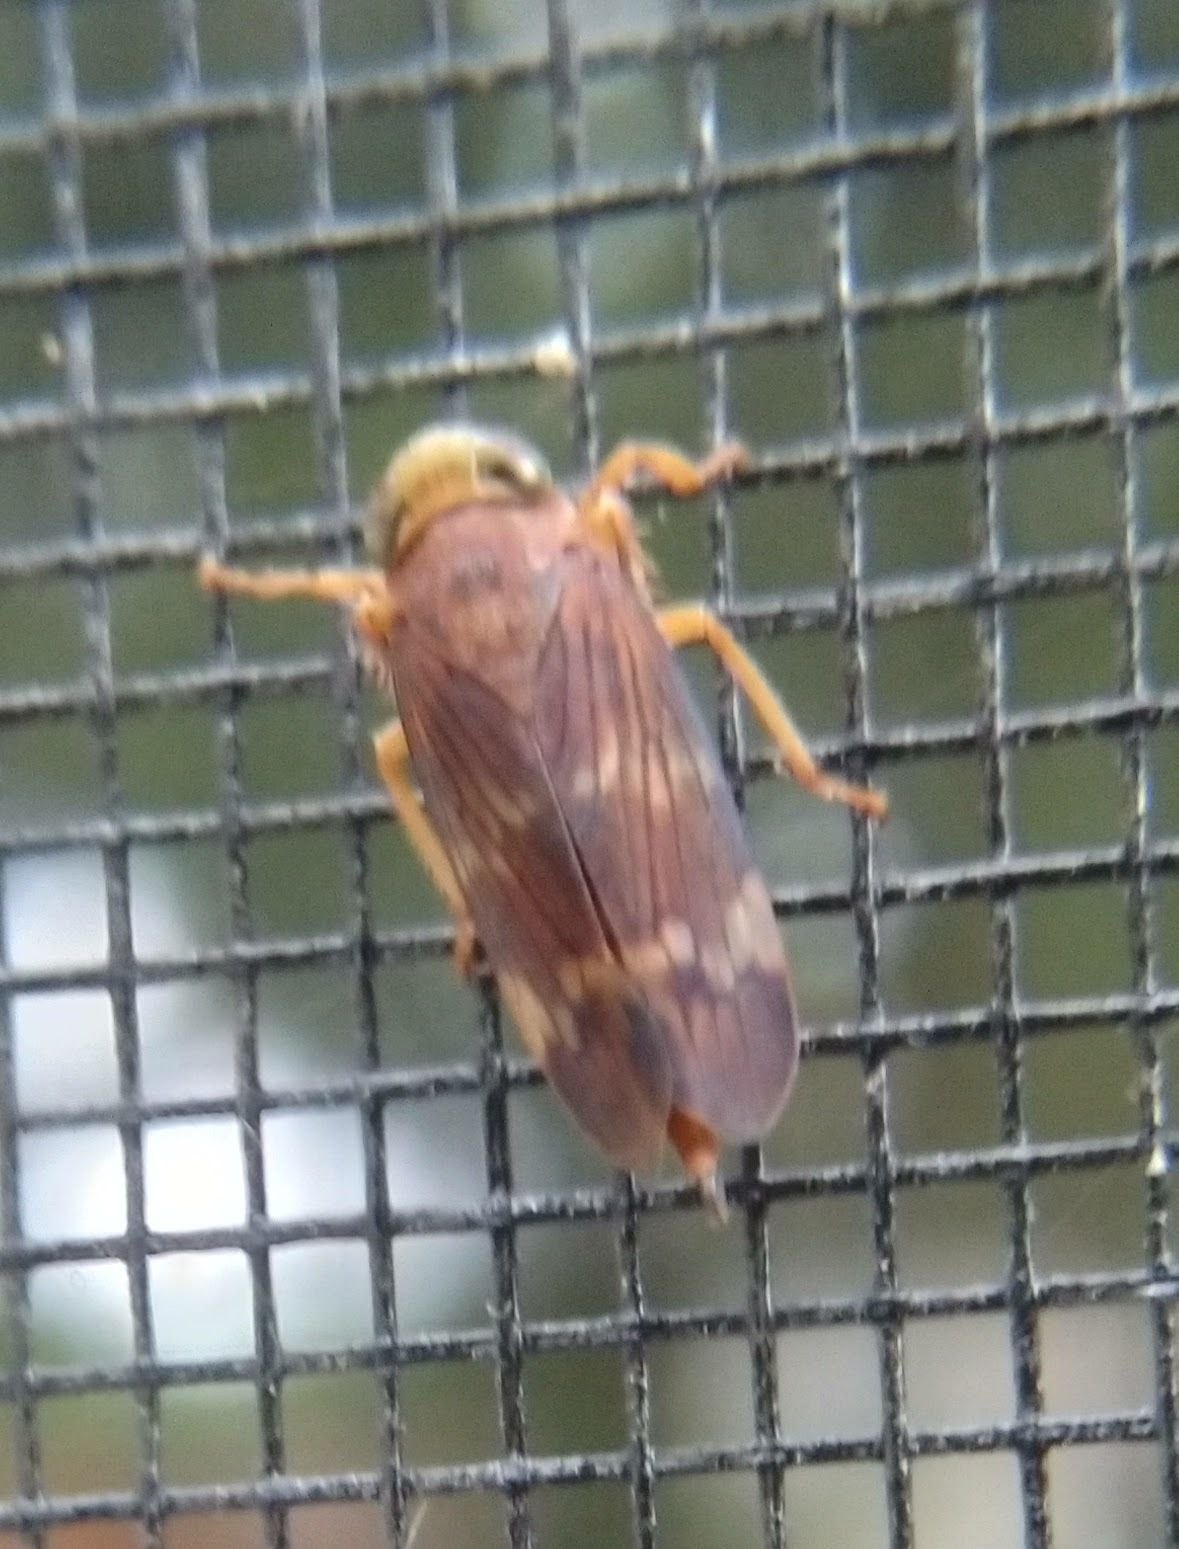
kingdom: Animalia
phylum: Arthropoda
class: Insecta
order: Hemiptera
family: Cicadellidae
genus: Jikradia
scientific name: Jikradia olitoria
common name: Coppery leafhopper
